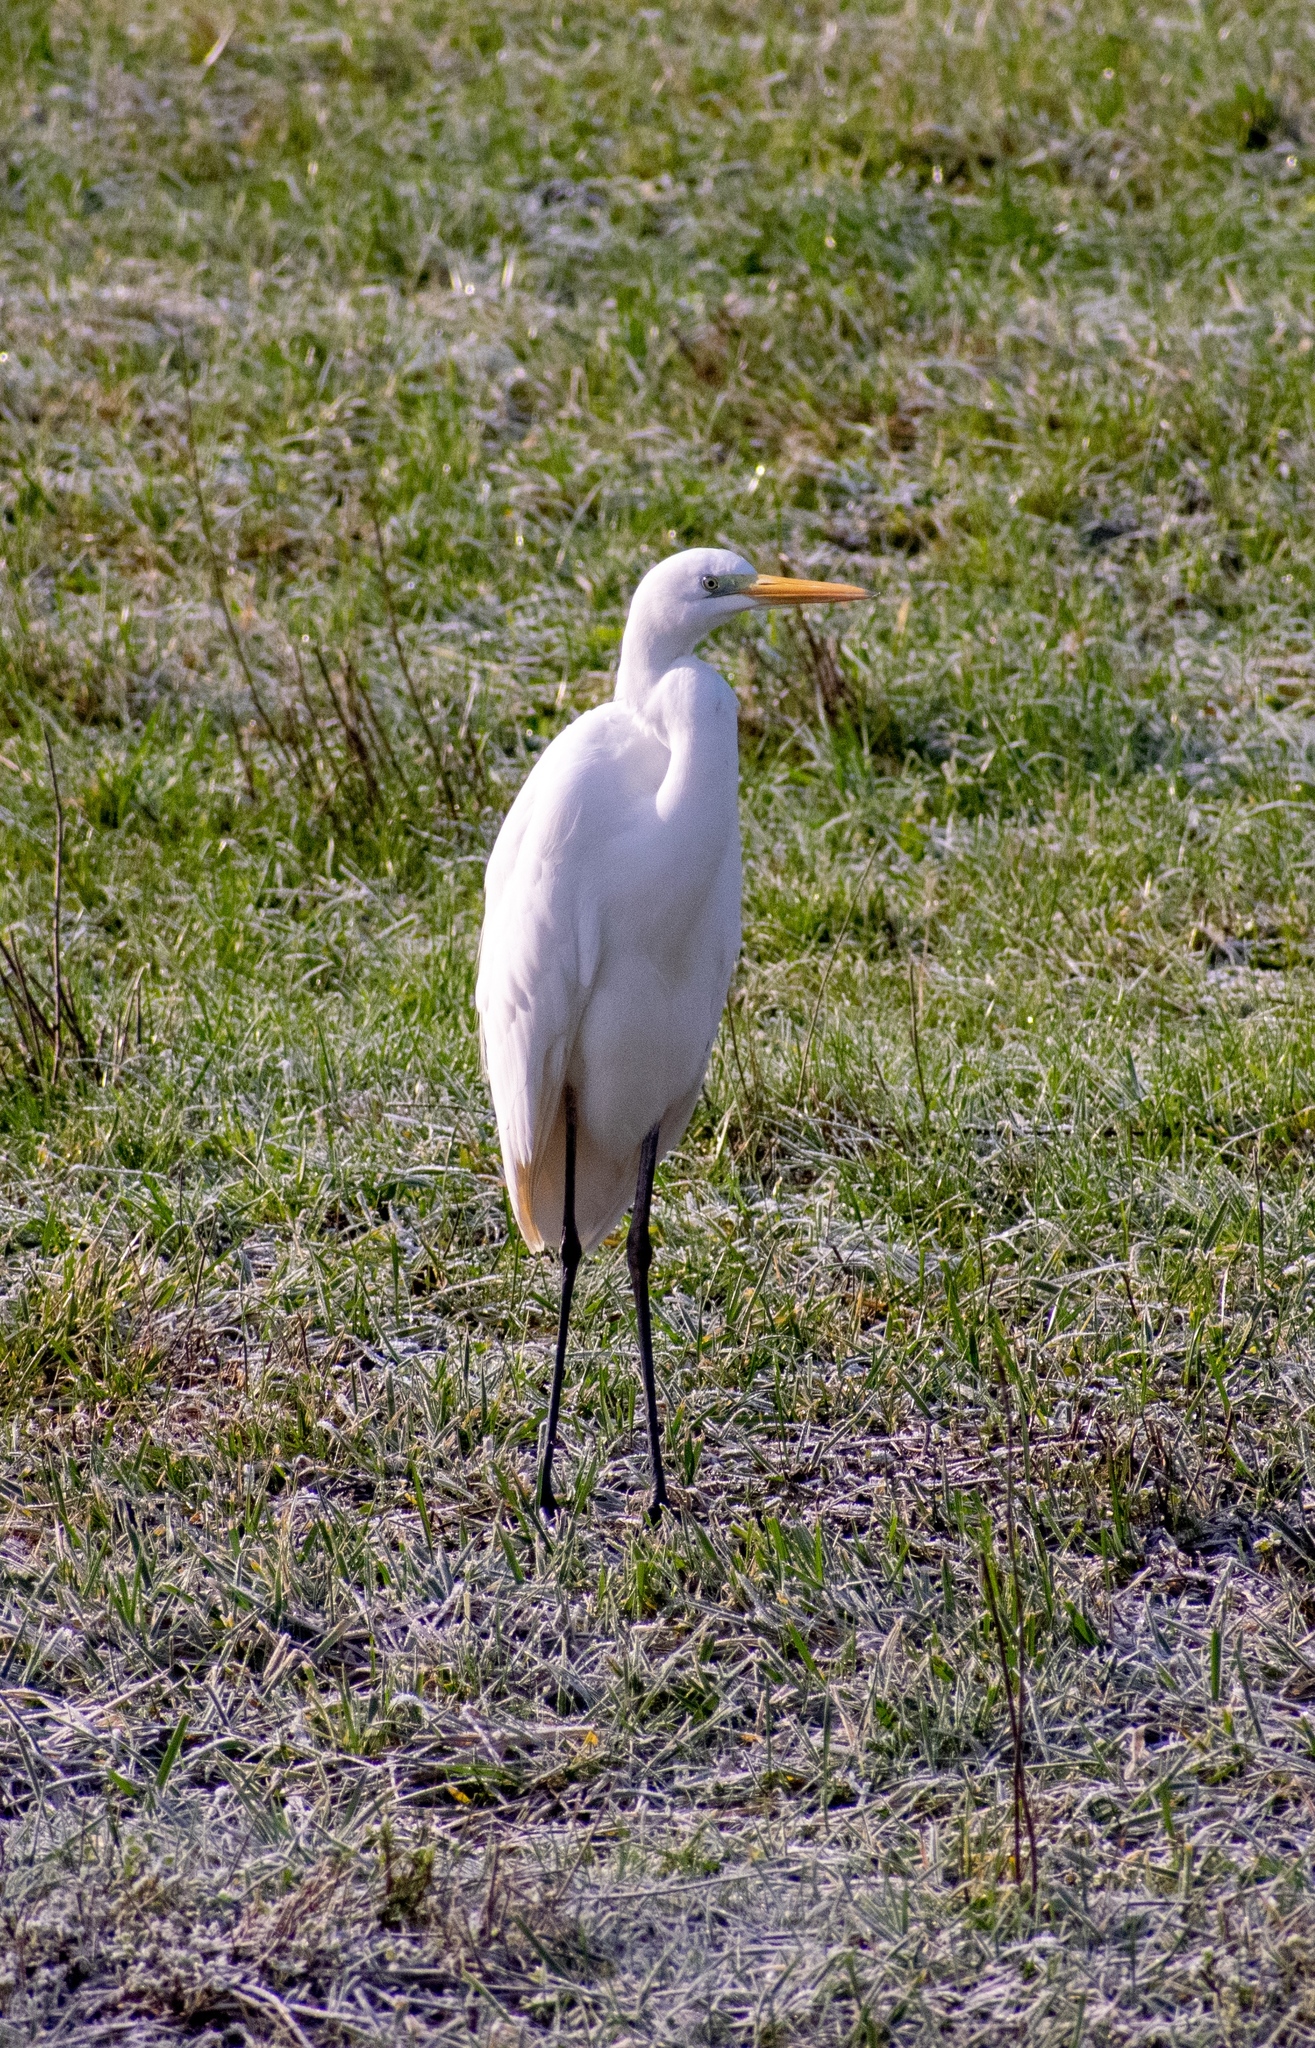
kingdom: Animalia
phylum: Chordata
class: Aves
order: Pelecaniformes
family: Ardeidae
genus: Ardea
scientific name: Ardea alba
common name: Great egret
